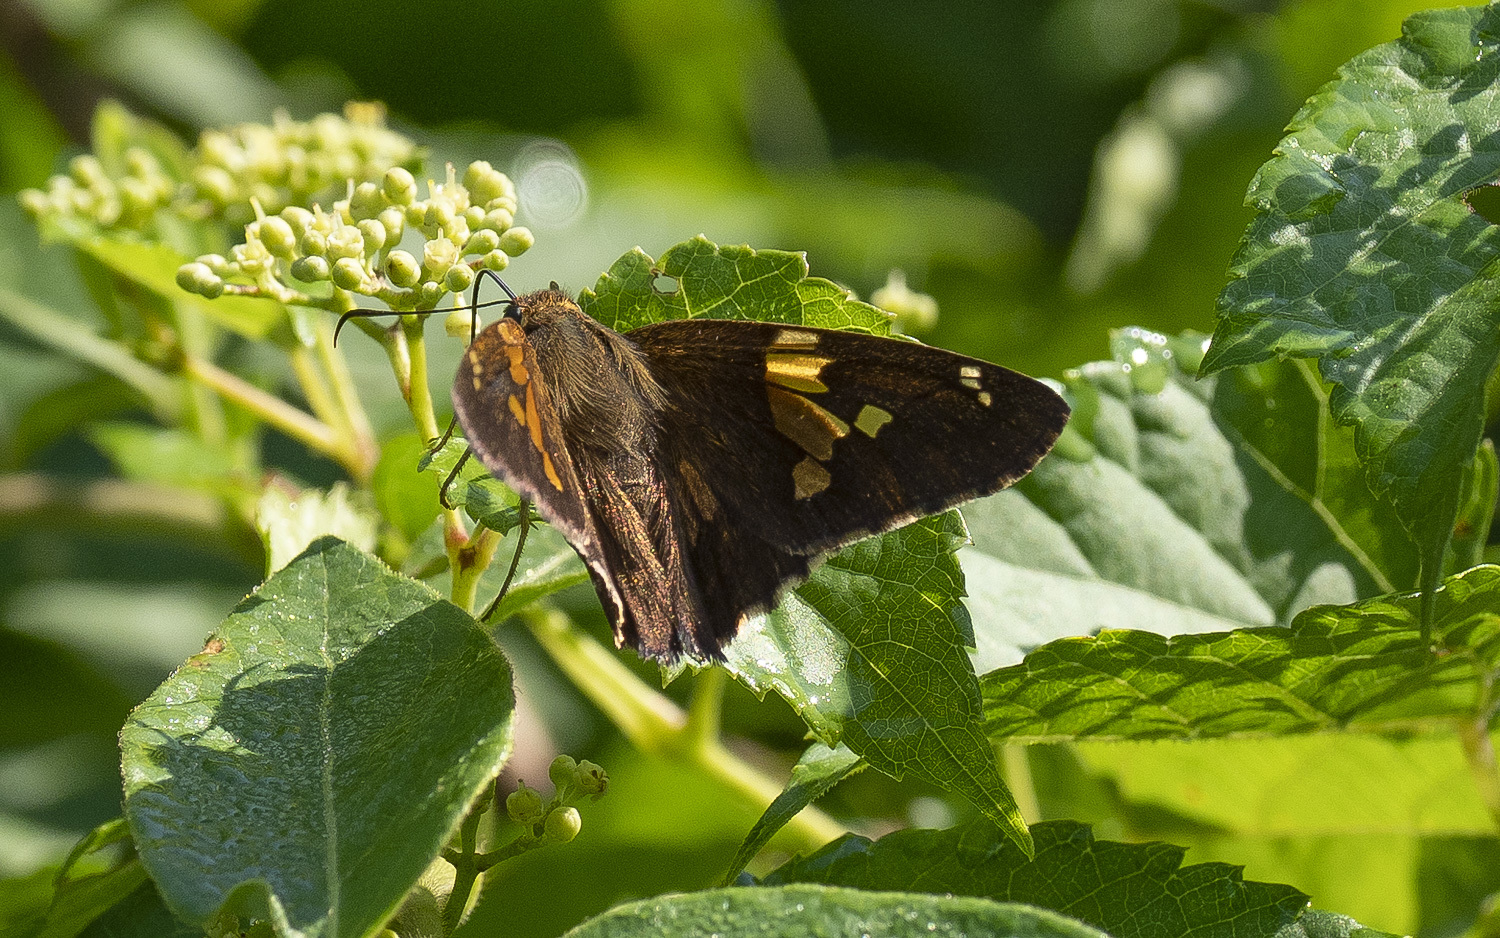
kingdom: Animalia
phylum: Arthropoda
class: Insecta
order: Lepidoptera
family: Hesperiidae
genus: Epargyreus
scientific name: Epargyreus clarus
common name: Silver-spotted skipper
